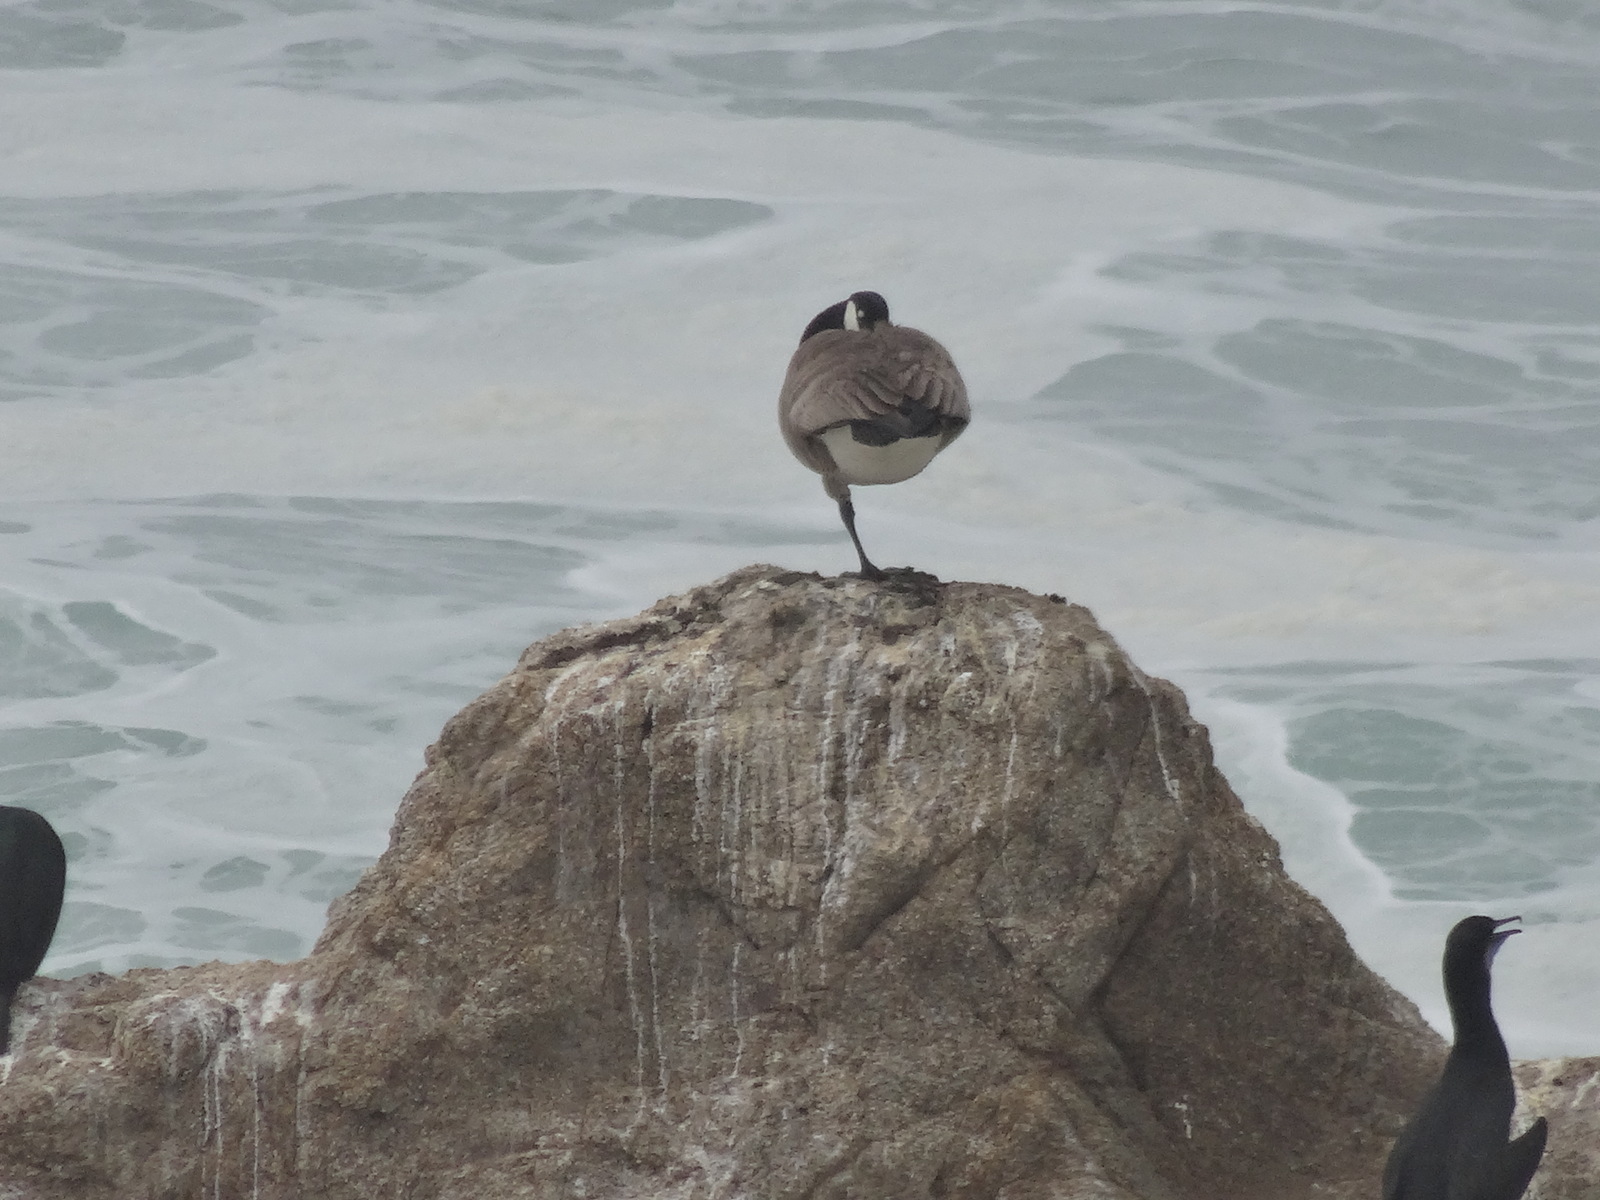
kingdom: Animalia
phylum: Chordata
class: Aves
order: Anseriformes
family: Anatidae
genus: Branta
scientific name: Branta canadensis
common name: Canada goose
